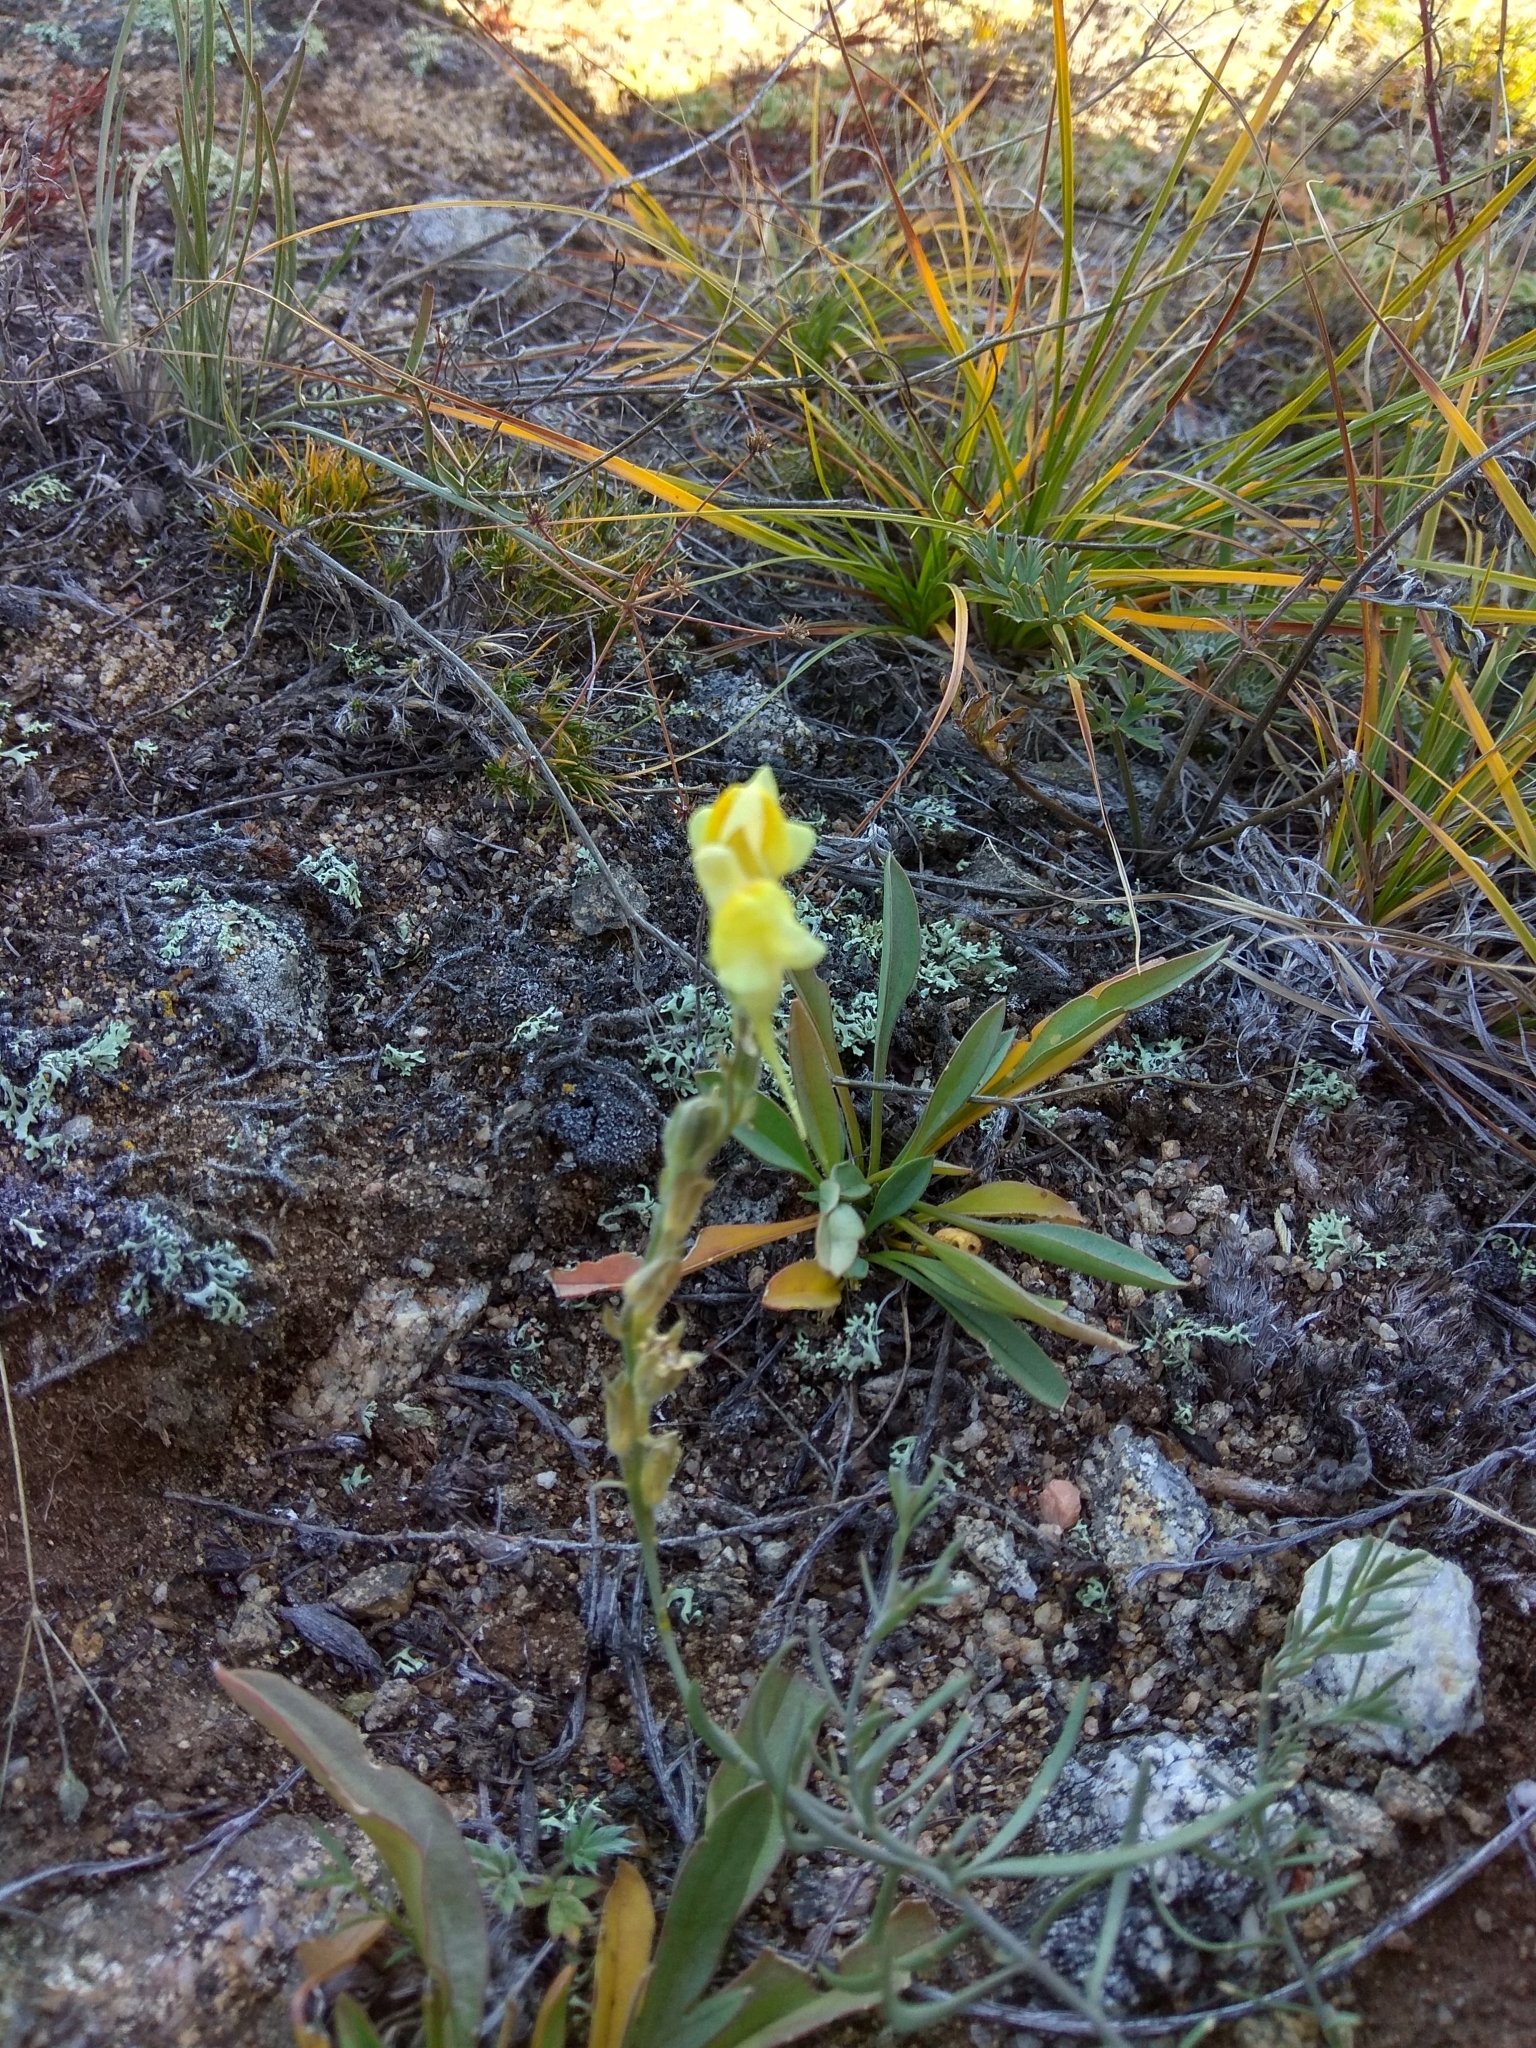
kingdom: Plantae
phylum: Tracheophyta
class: Magnoliopsida
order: Lamiales
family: Plantaginaceae
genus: Linaria
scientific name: Linaria buriatica
